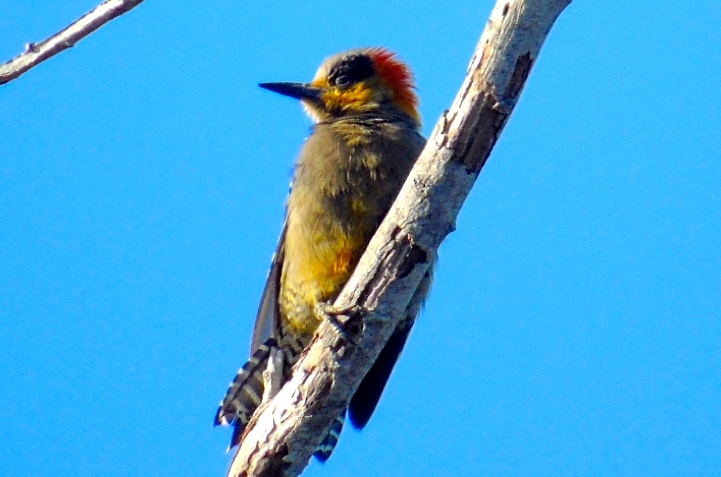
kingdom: Animalia
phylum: Chordata
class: Aves
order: Piciformes
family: Picidae
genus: Melanerpes
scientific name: Melanerpes chrysogenys
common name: Golden-cheeked woodpecker
